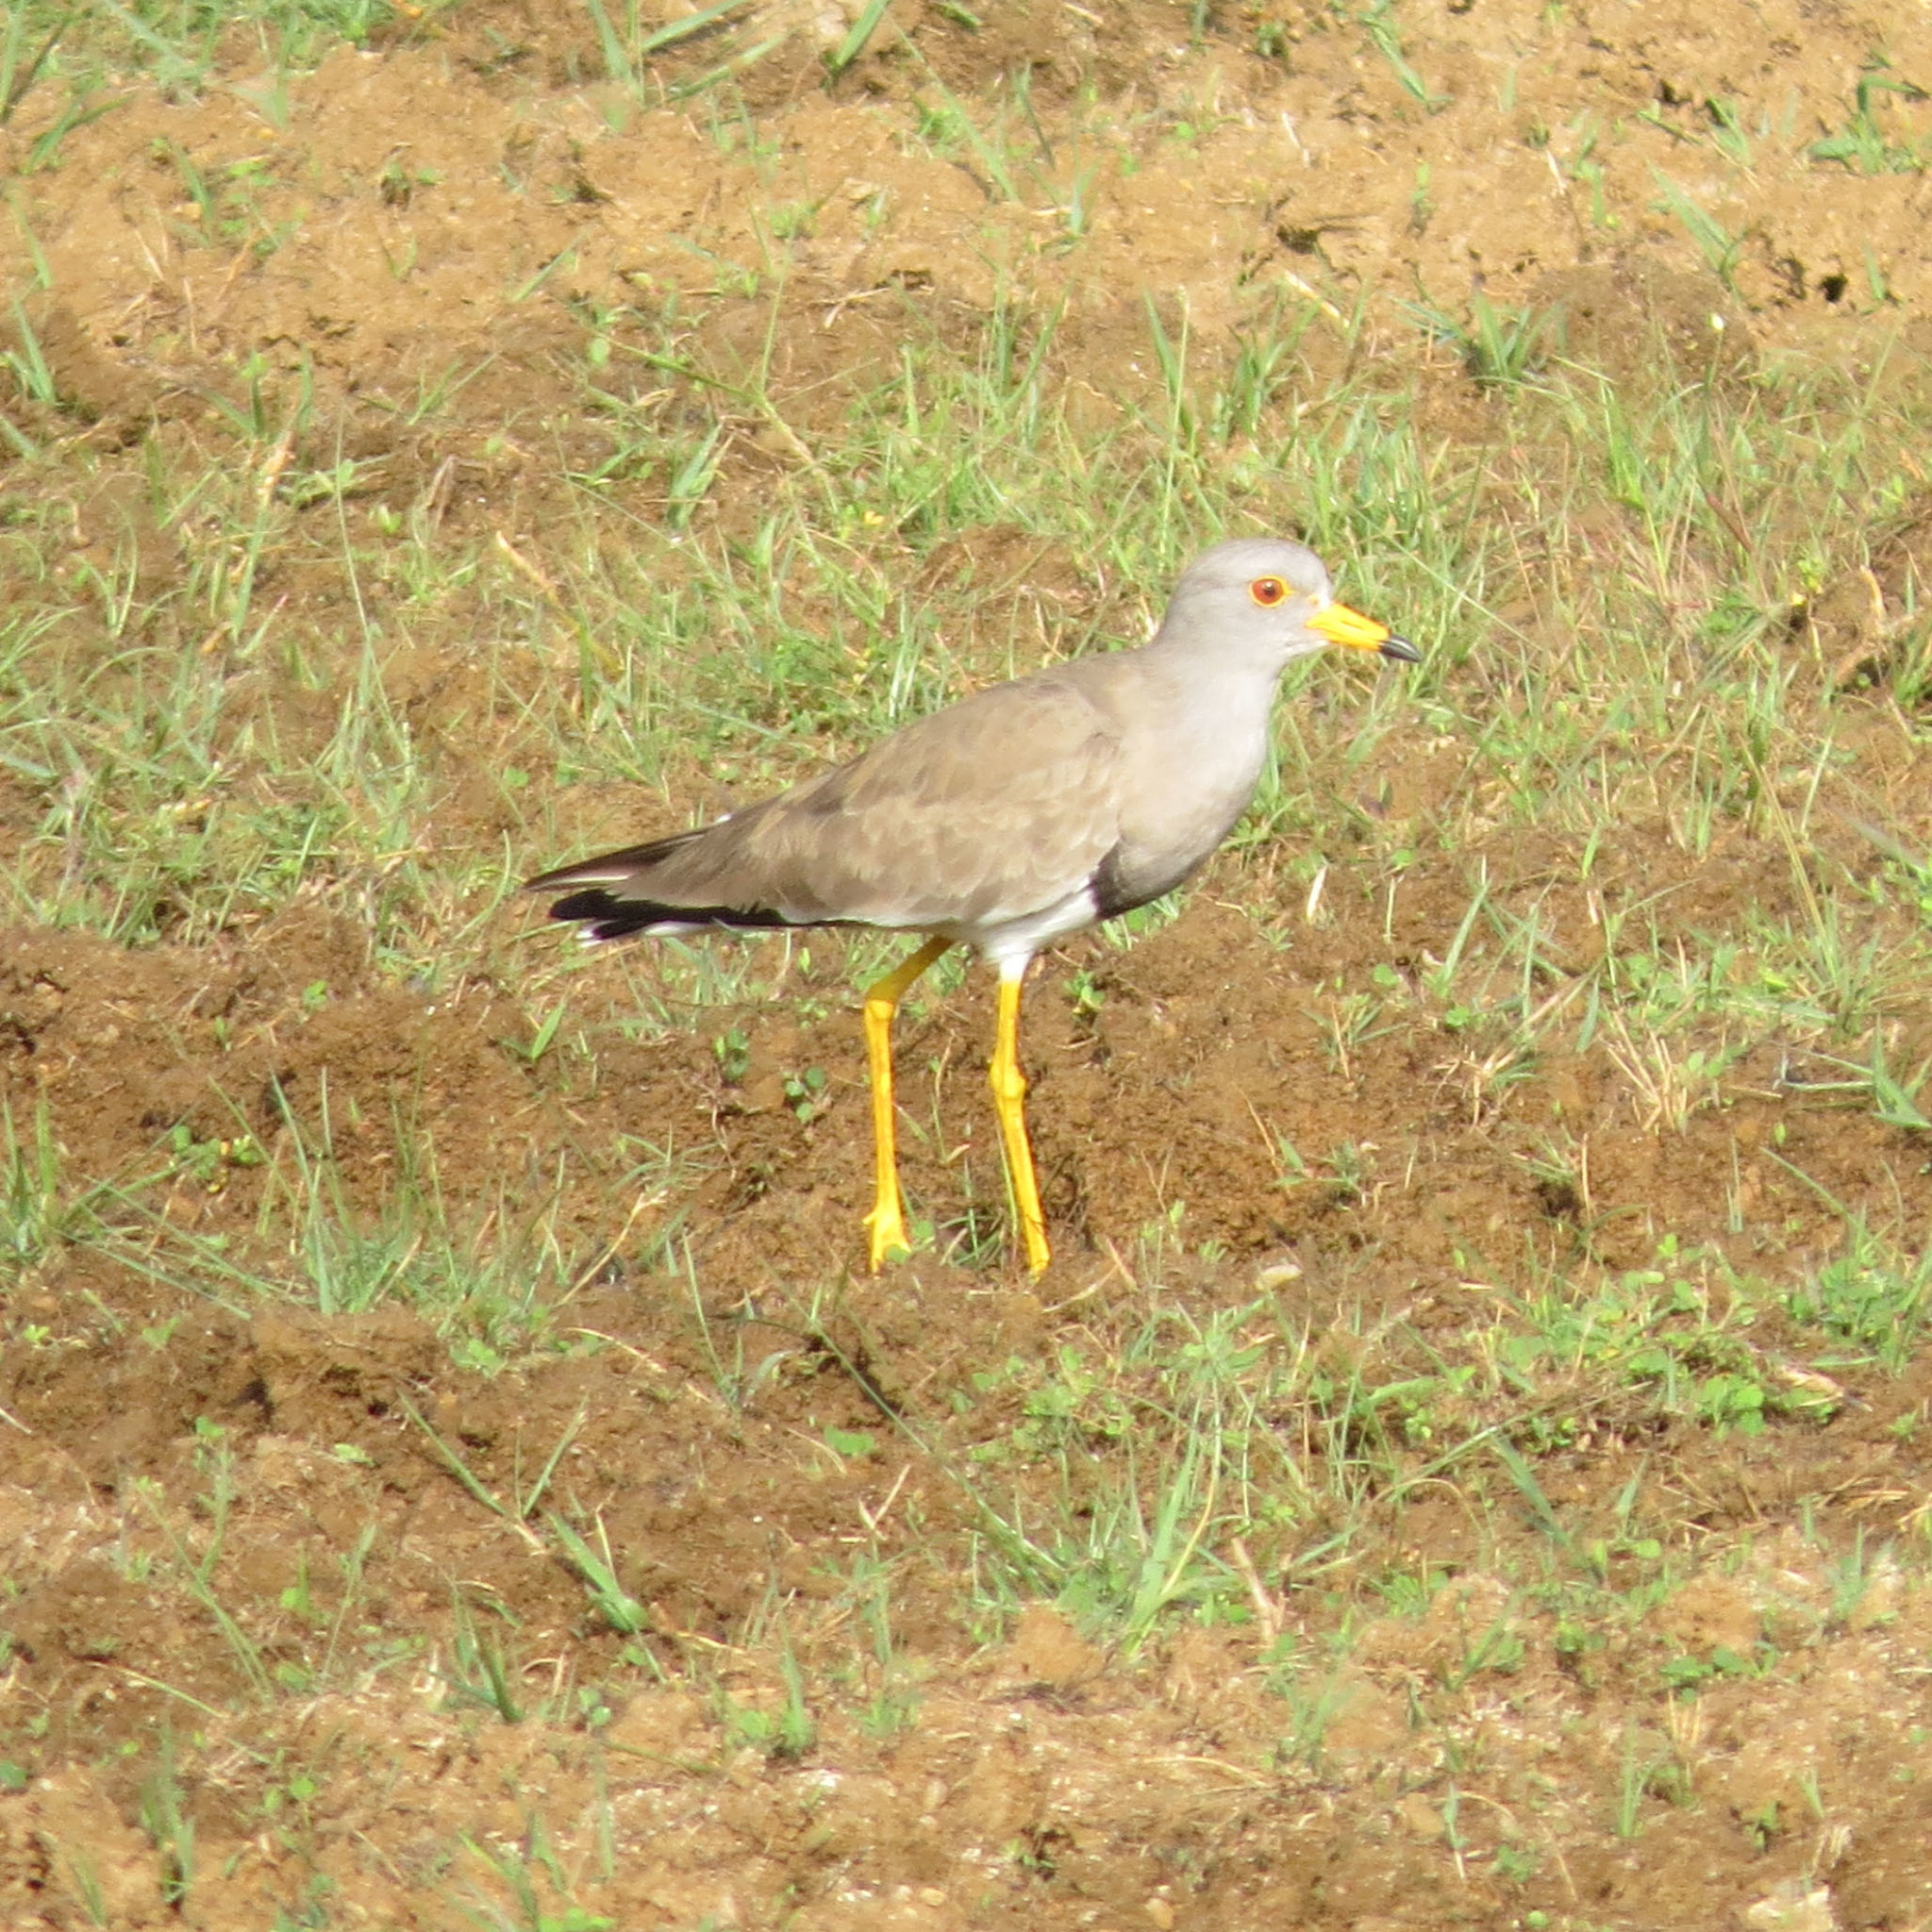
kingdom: Animalia
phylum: Chordata
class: Aves
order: Charadriiformes
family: Charadriidae
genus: Vanellus
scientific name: Vanellus cinereus
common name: Grey-headed lapwing
